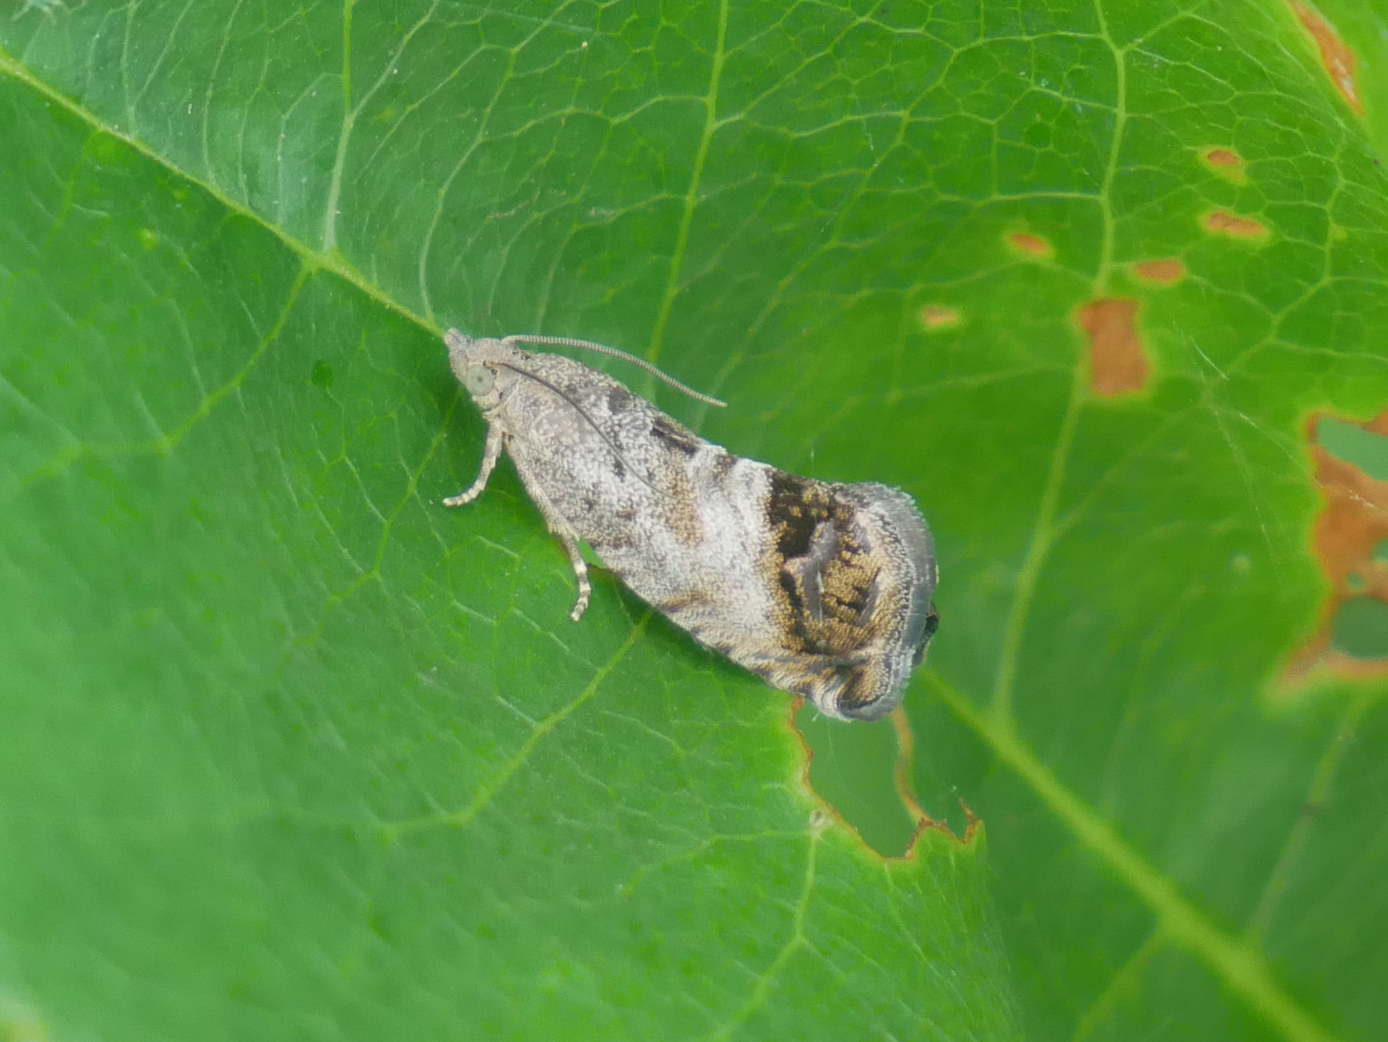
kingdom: Animalia
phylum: Arthropoda
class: Insecta
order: Lepidoptera
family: Tortricidae
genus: Cydia
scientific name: Cydia splendana
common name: De: kastanienwickler, eichenwickler es: oruga de la castaña fr: carpocapse des châtaignes it: cidia o tortrice tardiva delle castagne pt: bichado das castanhas gb: acorn moth, chestnut fruit tortrix
